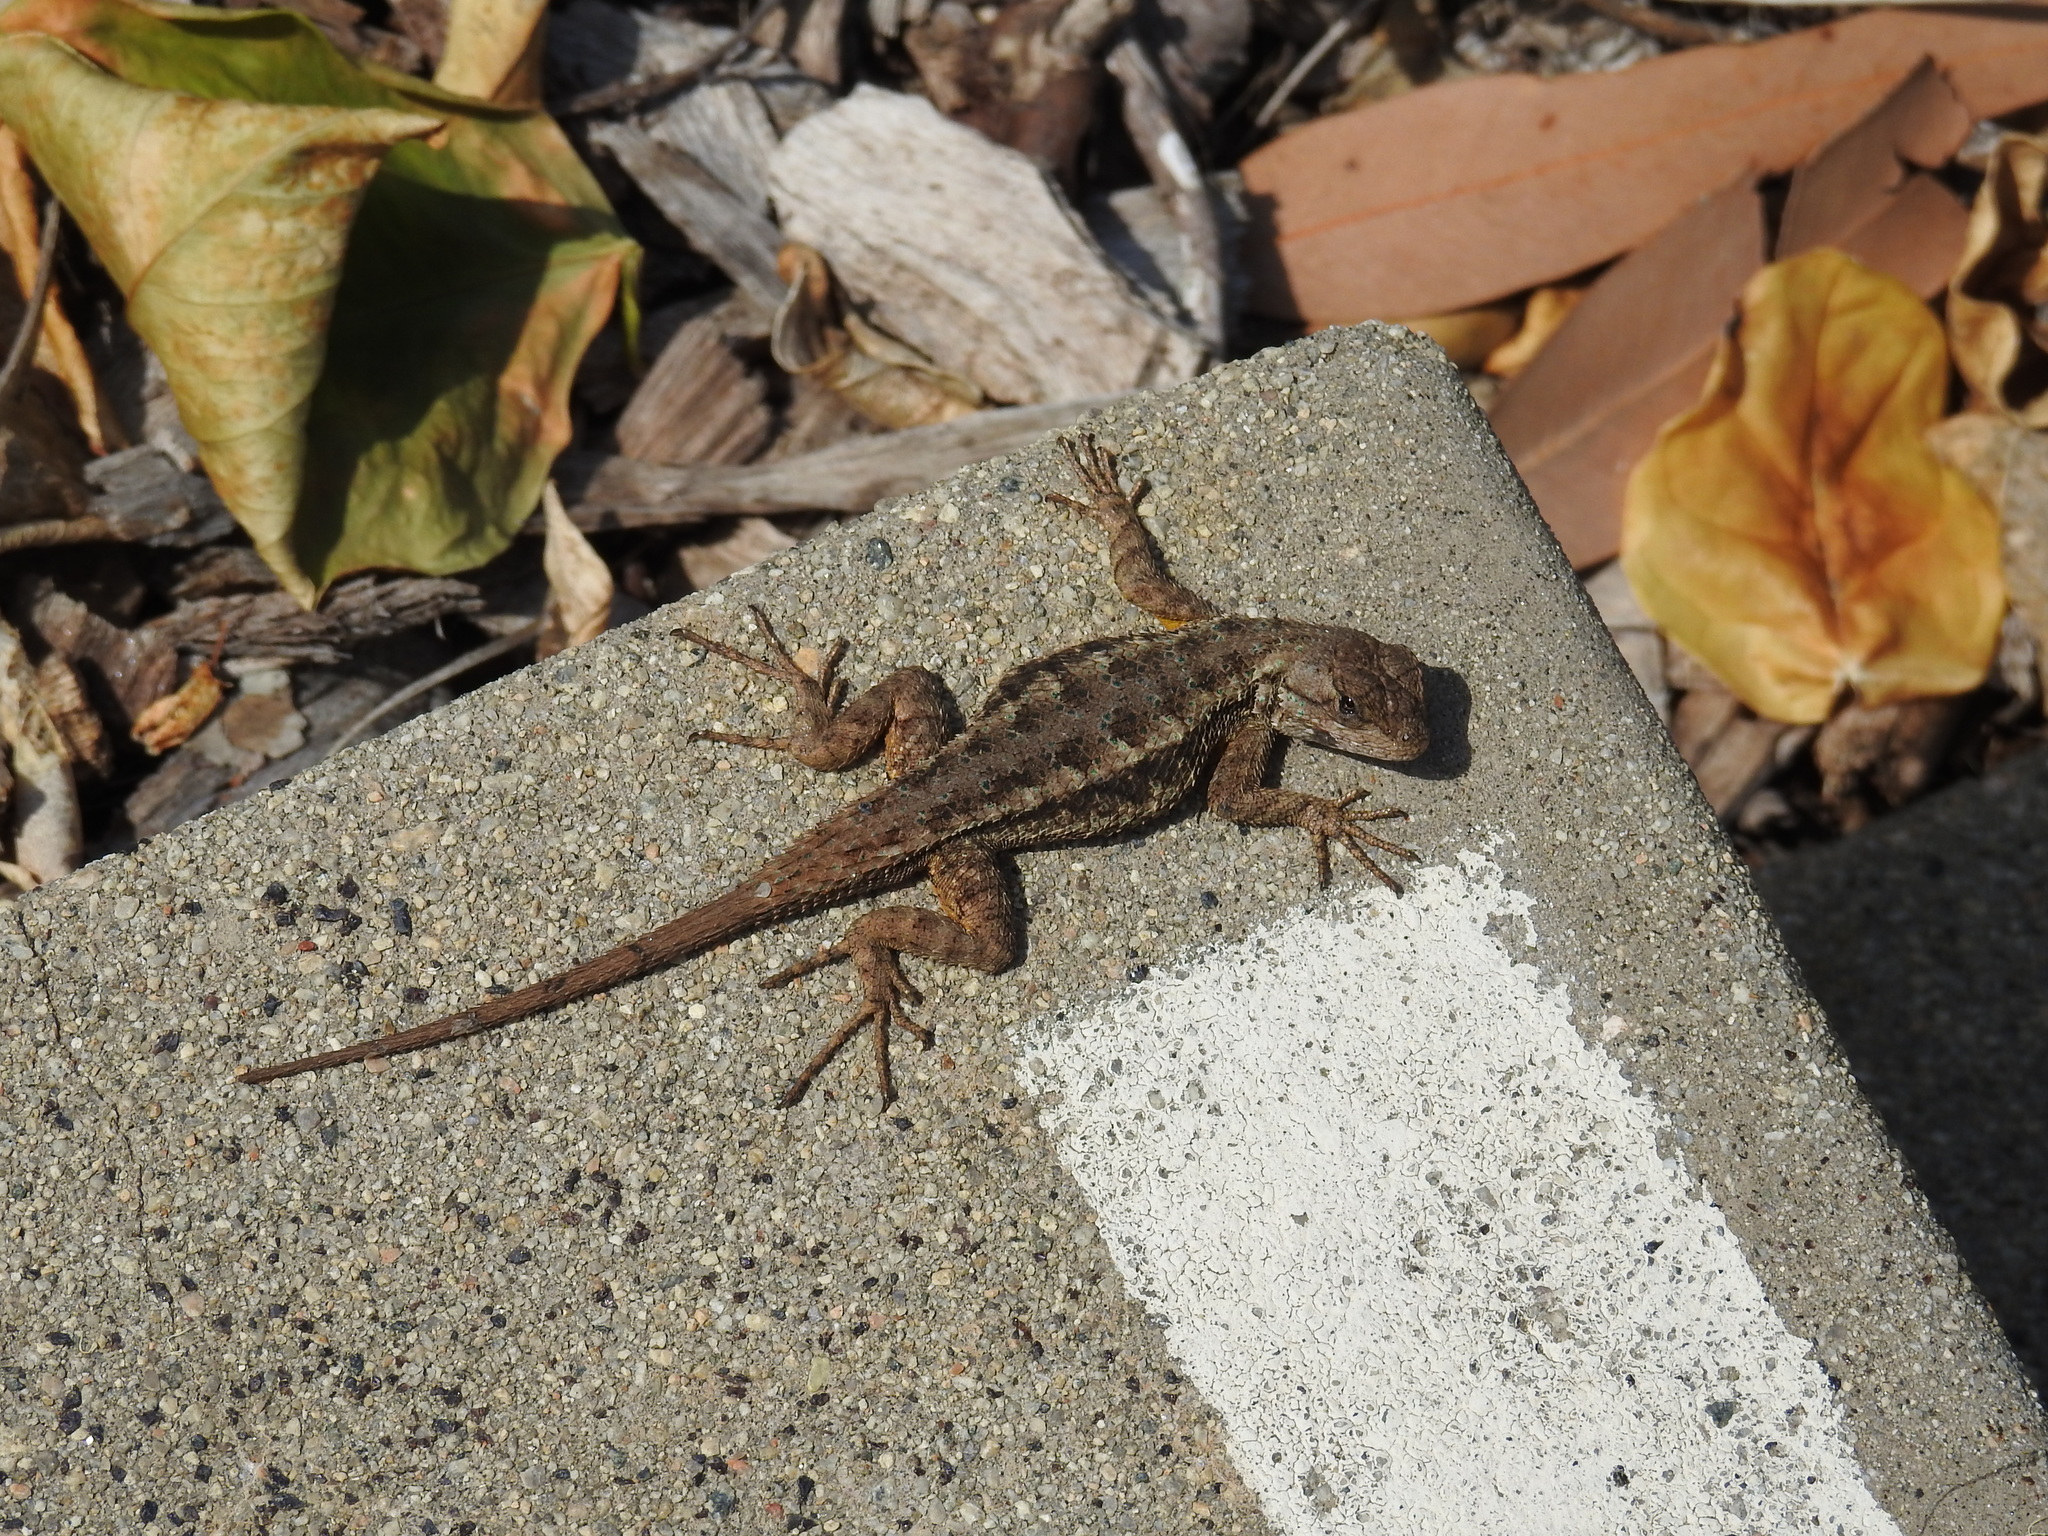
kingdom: Animalia
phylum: Chordata
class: Squamata
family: Phrynosomatidae
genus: Sceloporus
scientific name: Sceloporus occidentalis
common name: Western fence lizard
